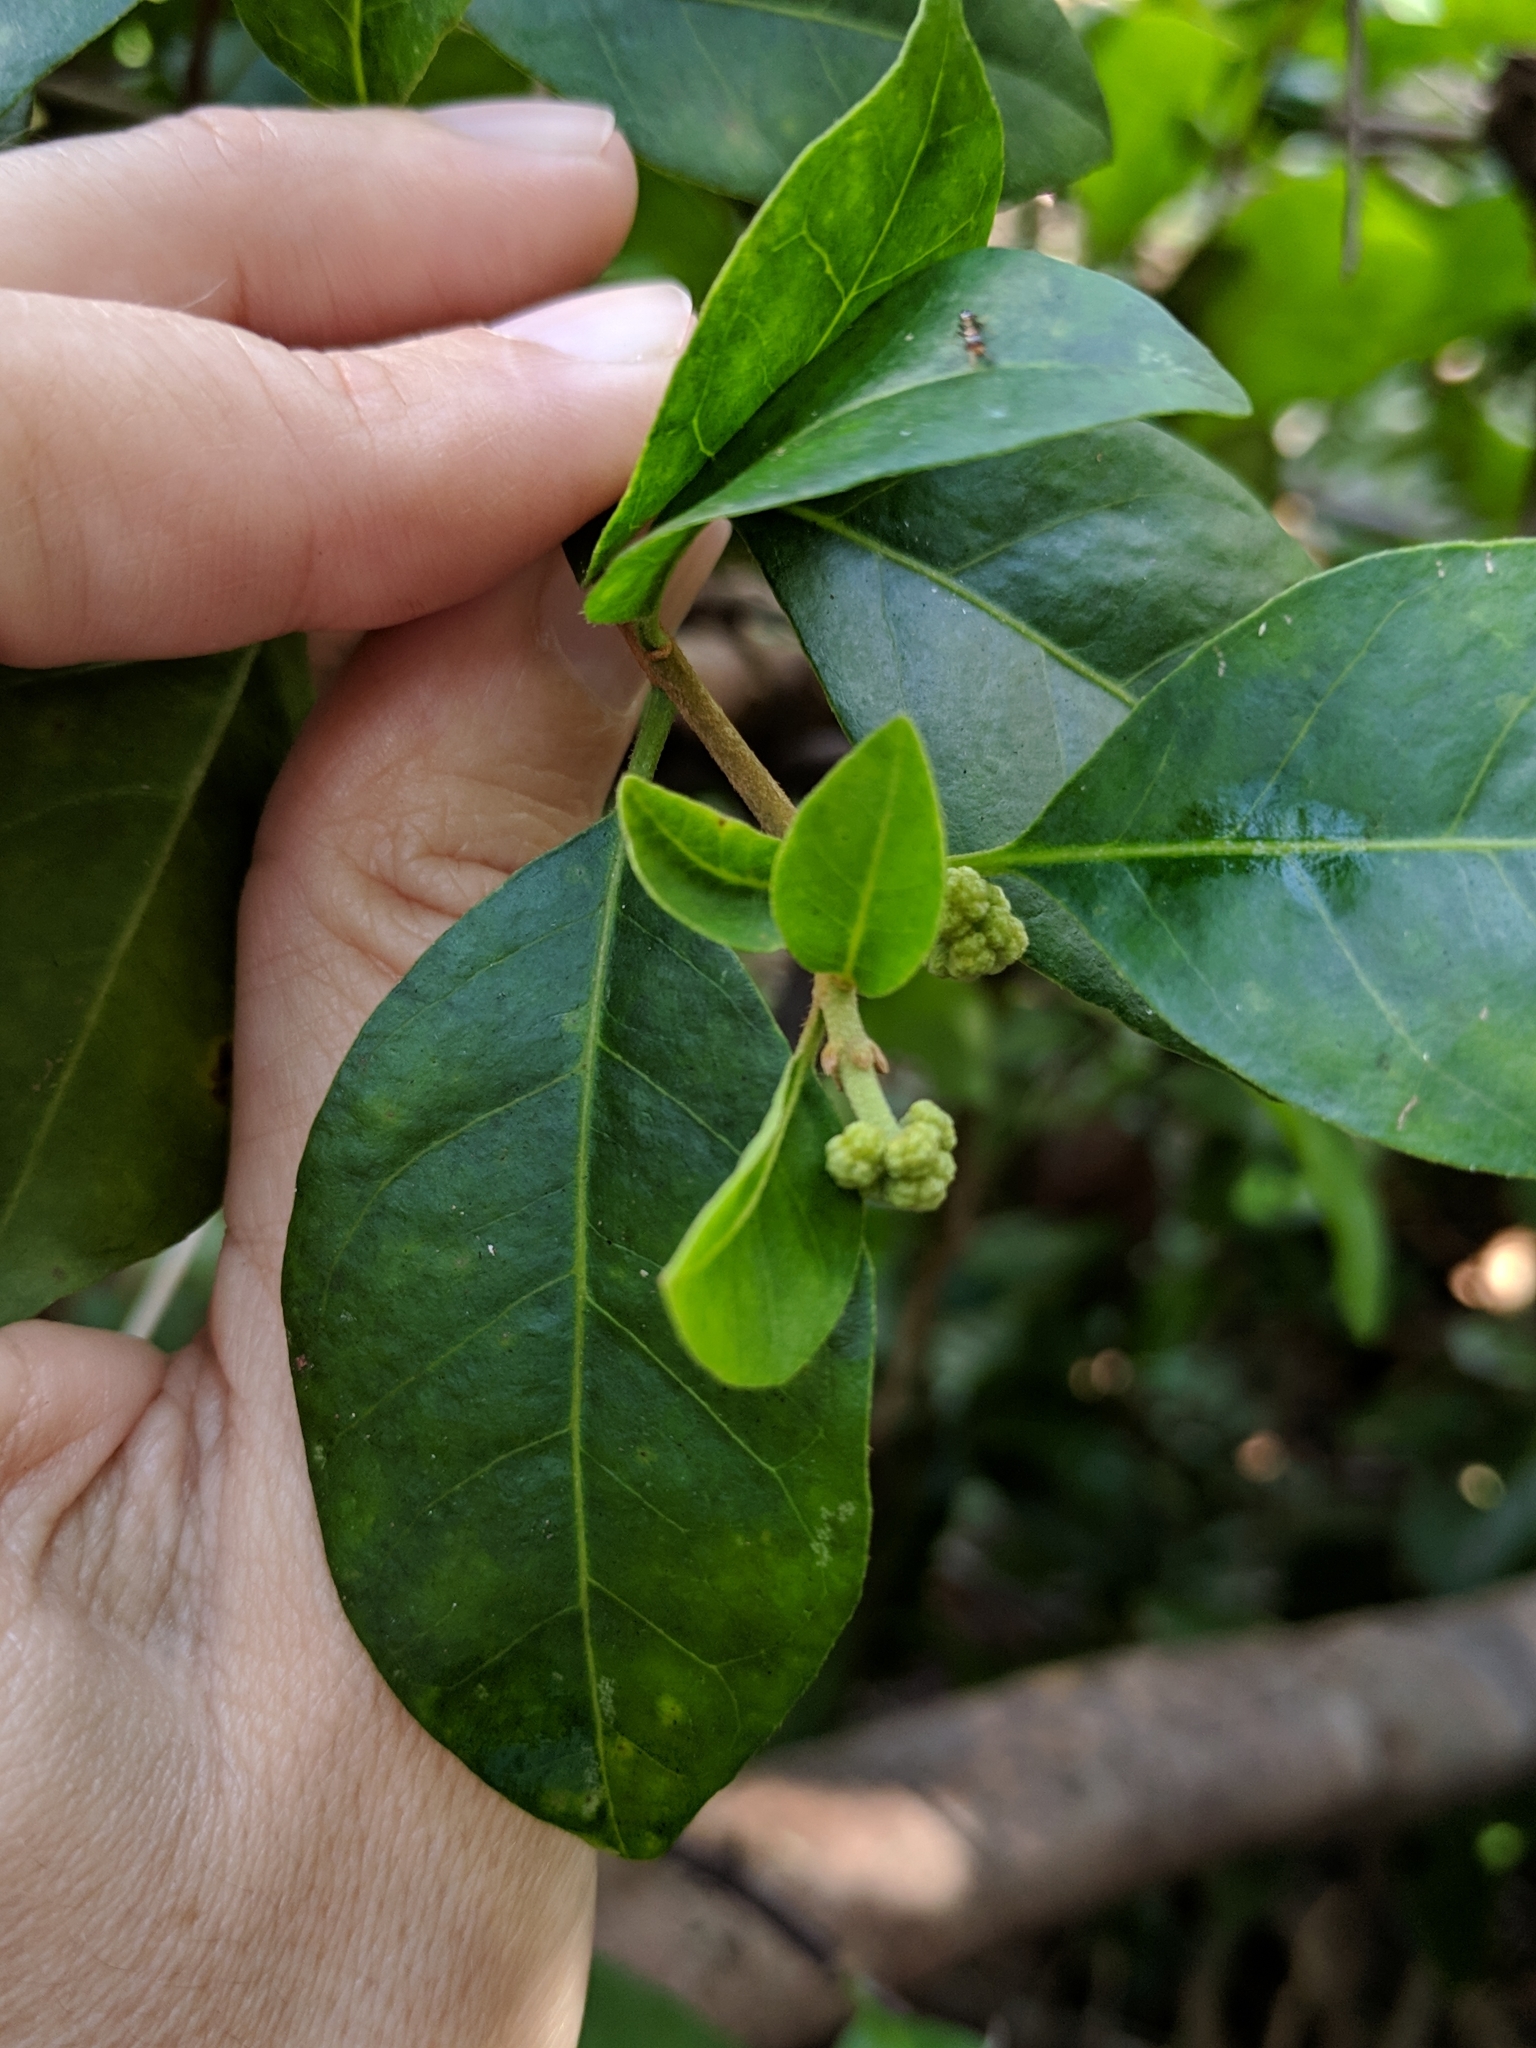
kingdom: Plantae
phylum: Tracheophyta
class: Magnoliopsida
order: Caryophyllales
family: Nyctaginaceae
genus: Pisonia
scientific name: Pisonia aculeata
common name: Cockspur vine
